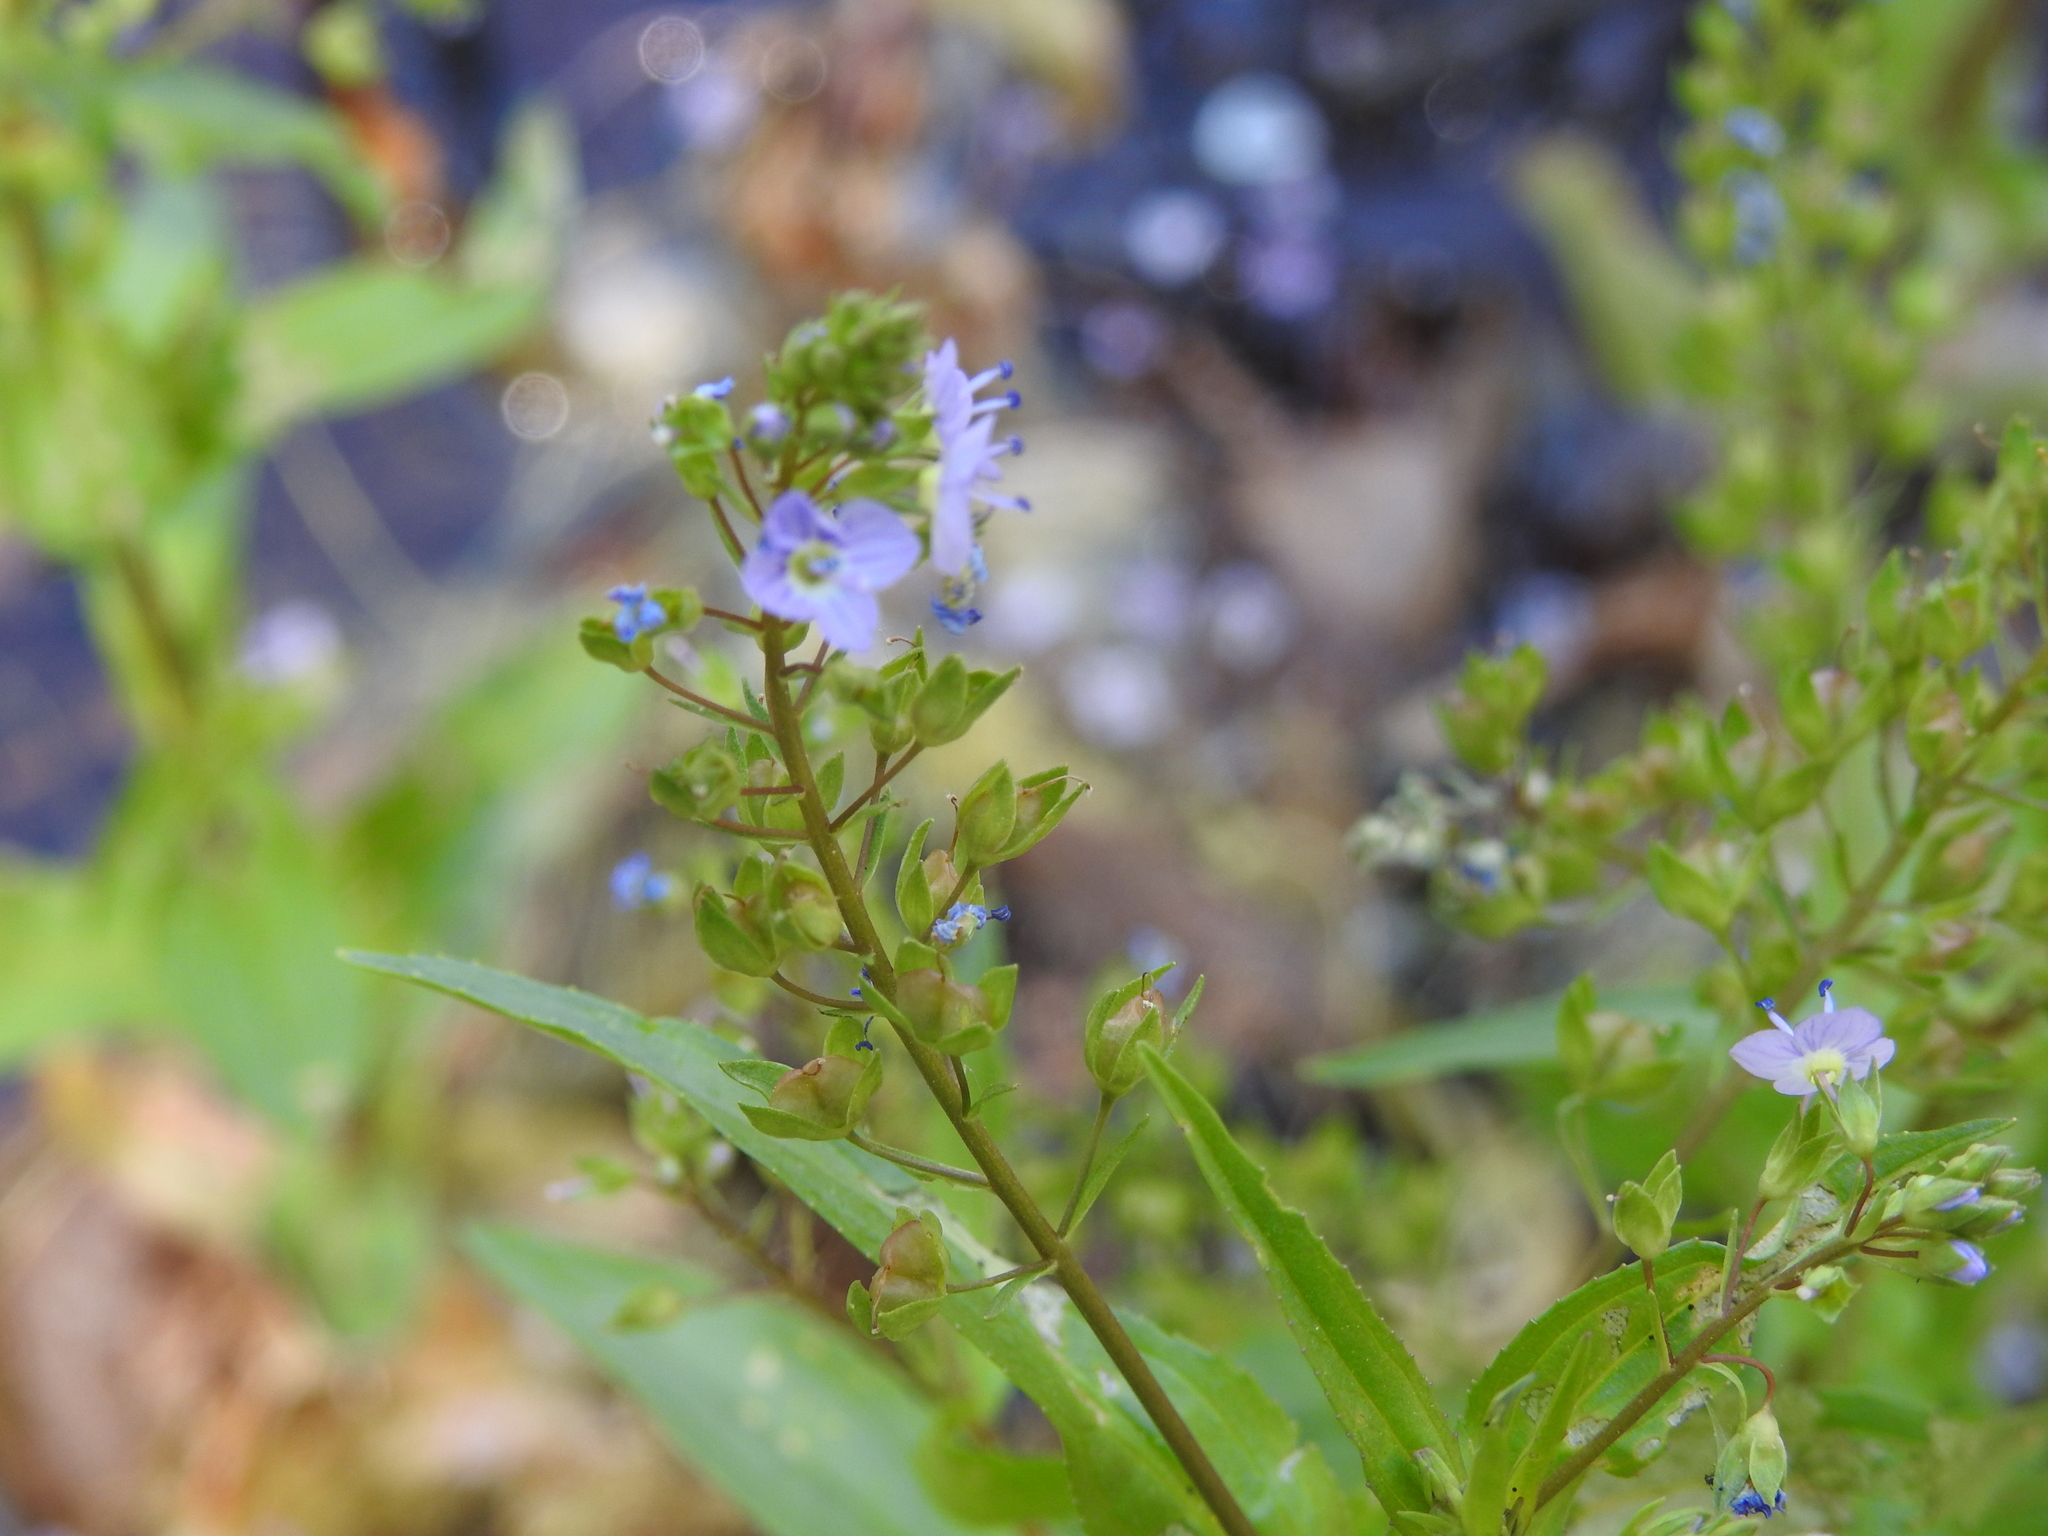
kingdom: Plantae
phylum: Tracheophyta
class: Magnoliopsida
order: Lamiales
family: Plantaginaceae
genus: Veronica
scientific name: Veronica americana
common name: American brooklime
